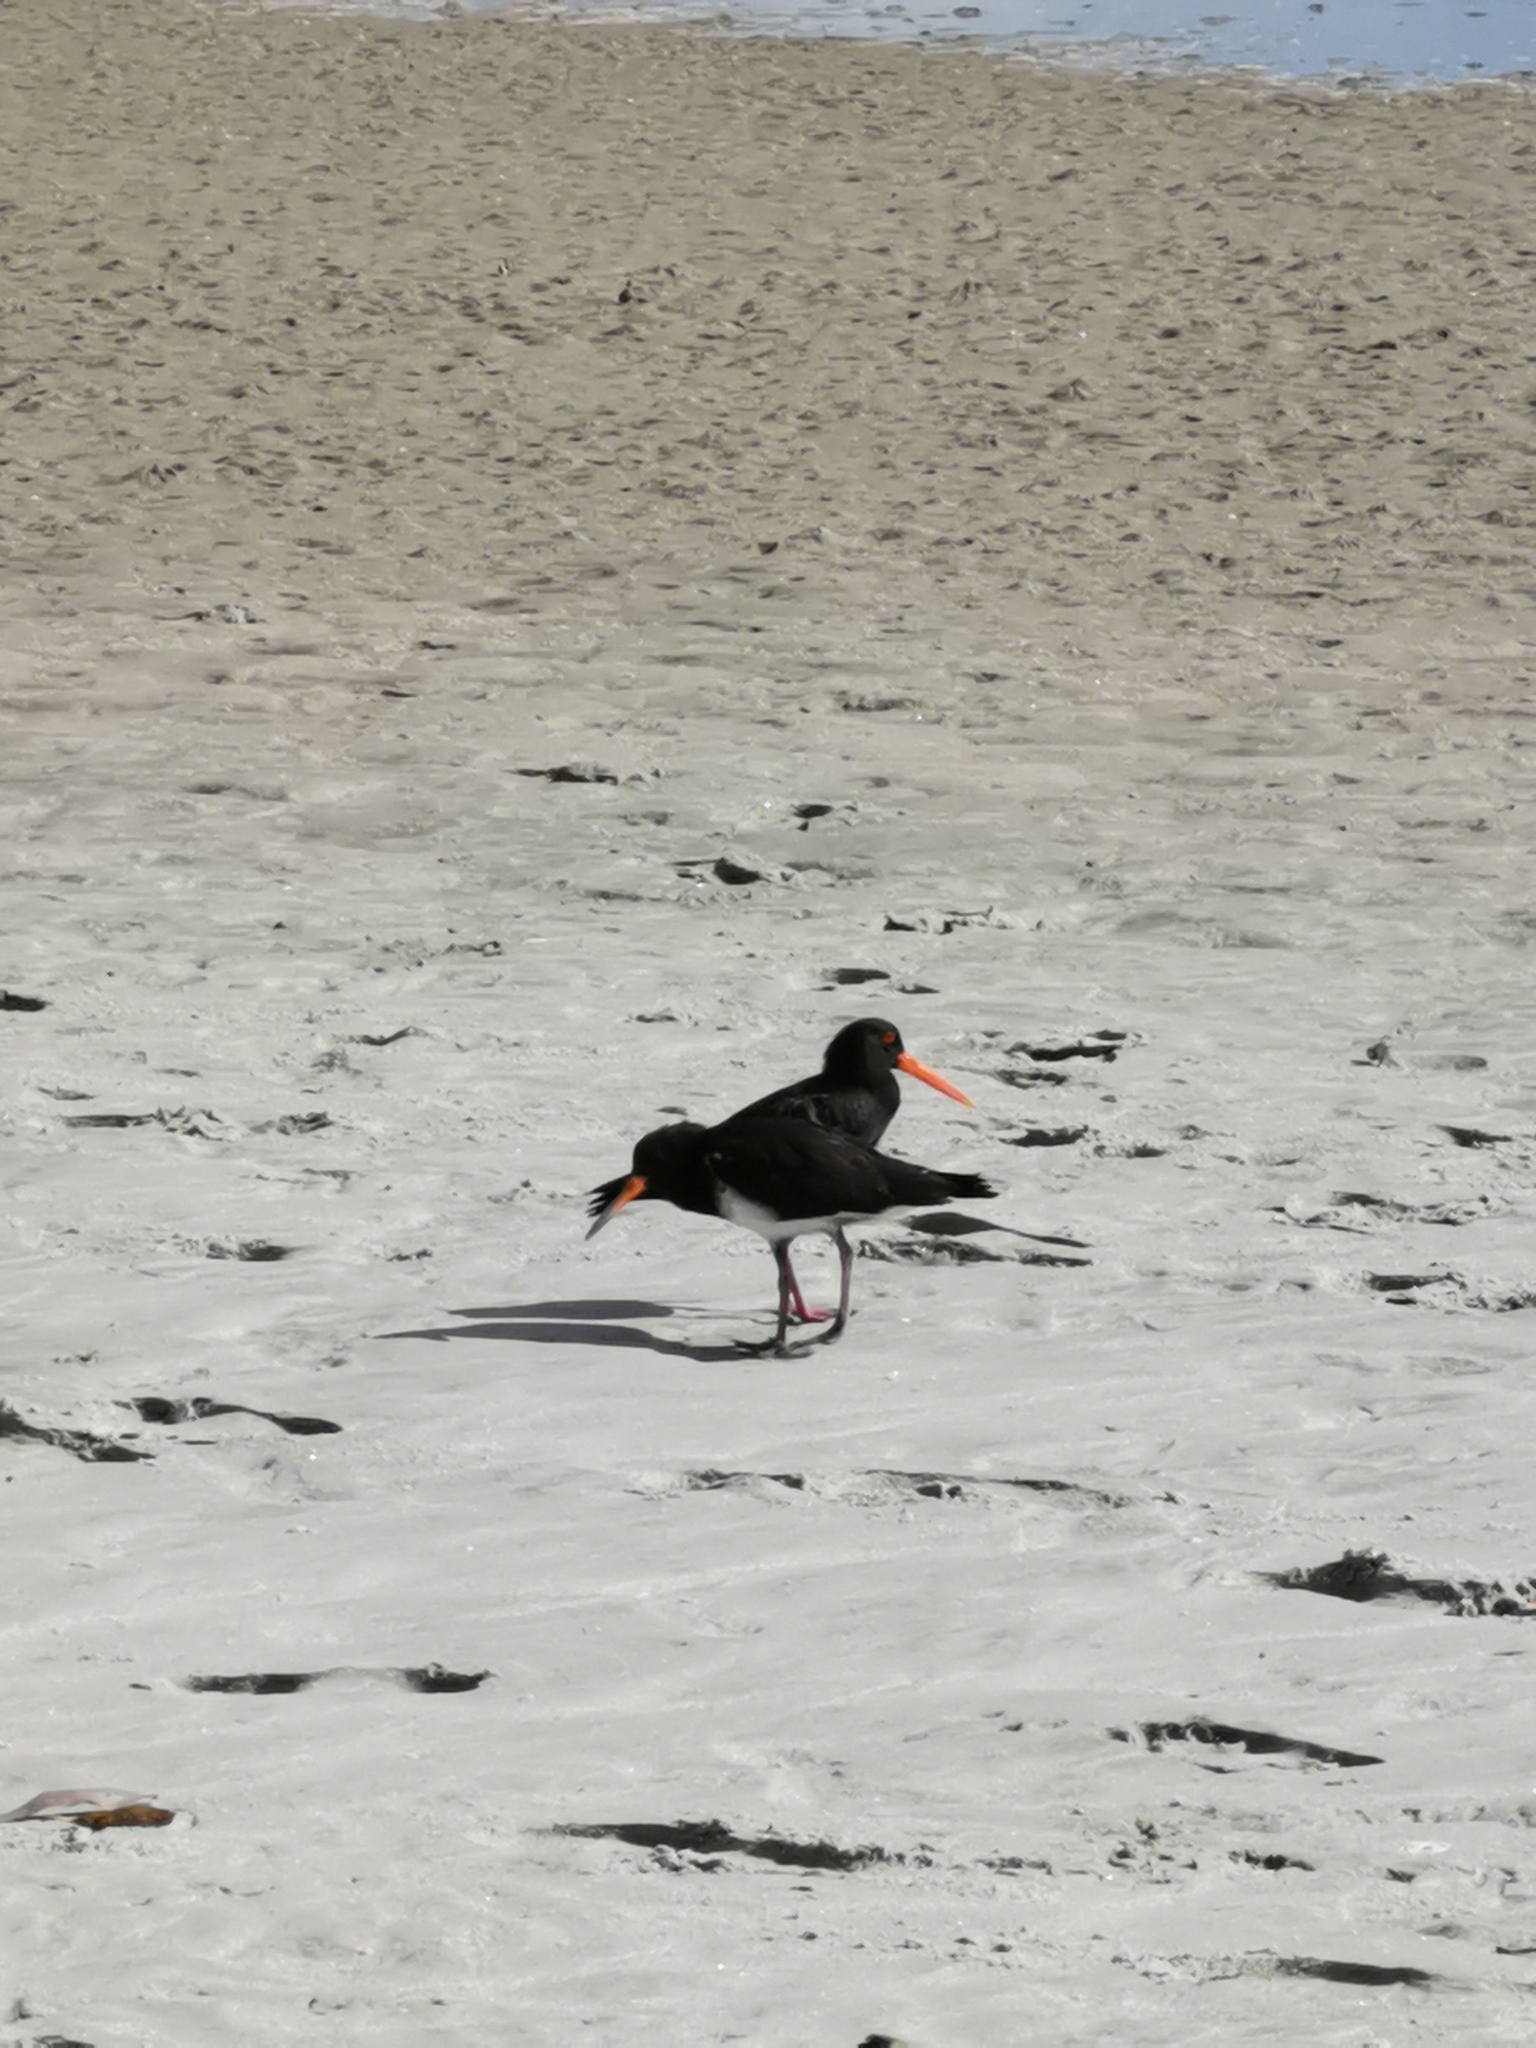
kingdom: Animalia
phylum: Chordata
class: Aves
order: Charadriiformes
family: Haematopodidae
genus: Haematopus
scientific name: Haematopus unicolor
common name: Variable oystercatcher
